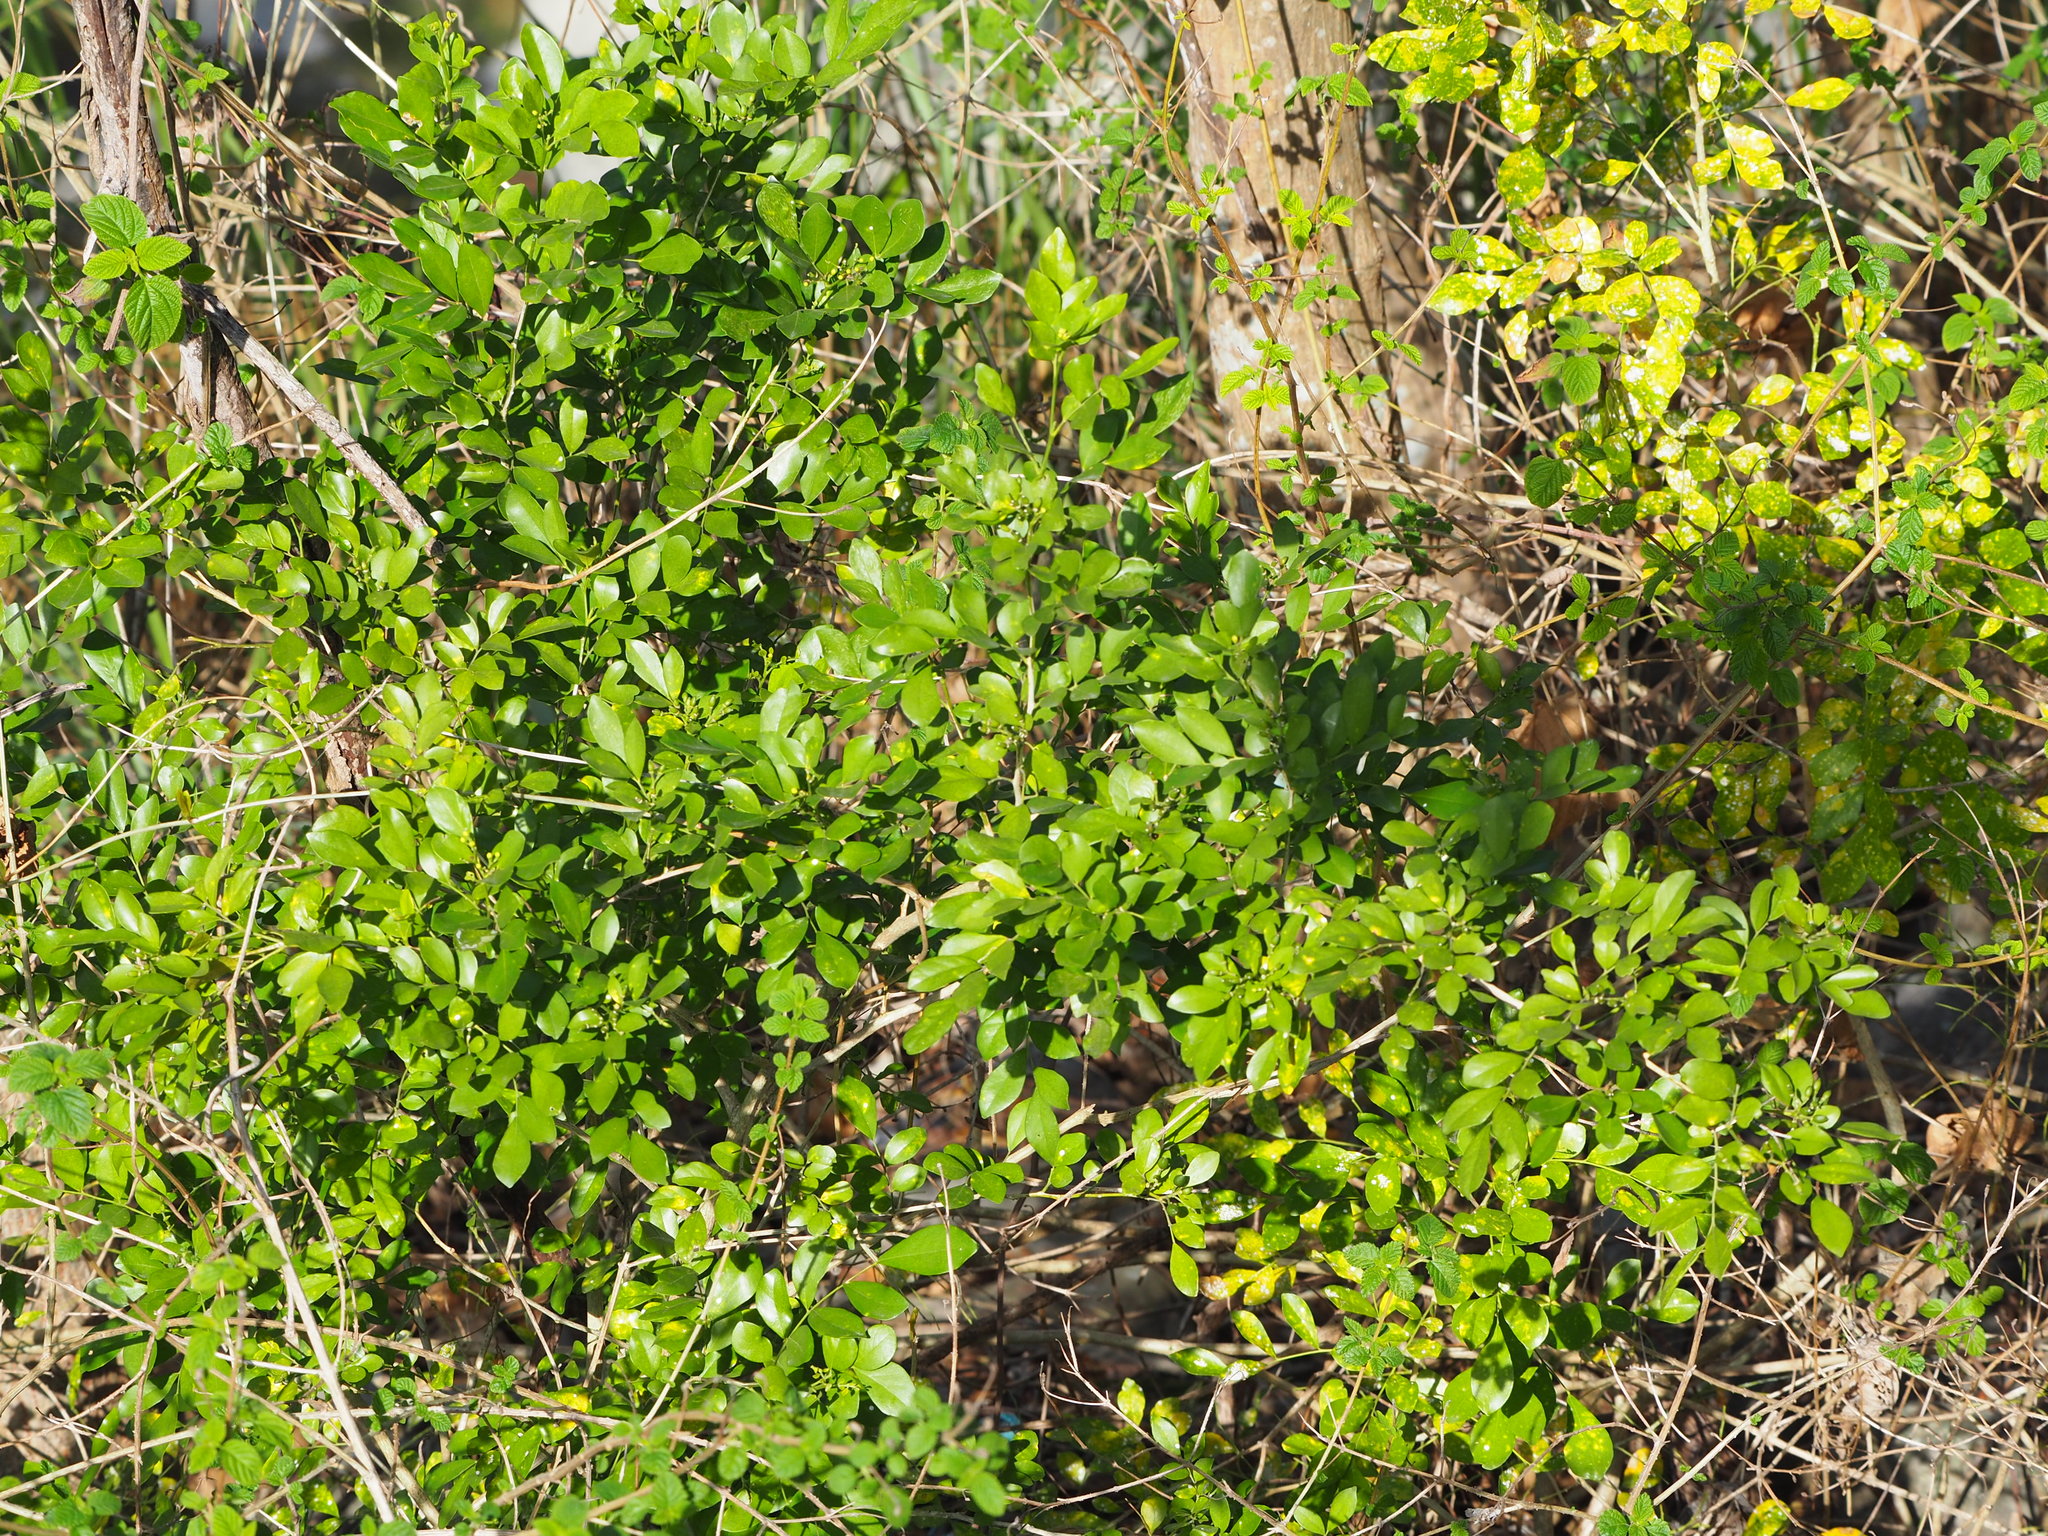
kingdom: Plantae
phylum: Tracheophyta
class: Magnoliopsida
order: Sapindales
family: Rutaceae
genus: Murraya
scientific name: Murraya paniculata
